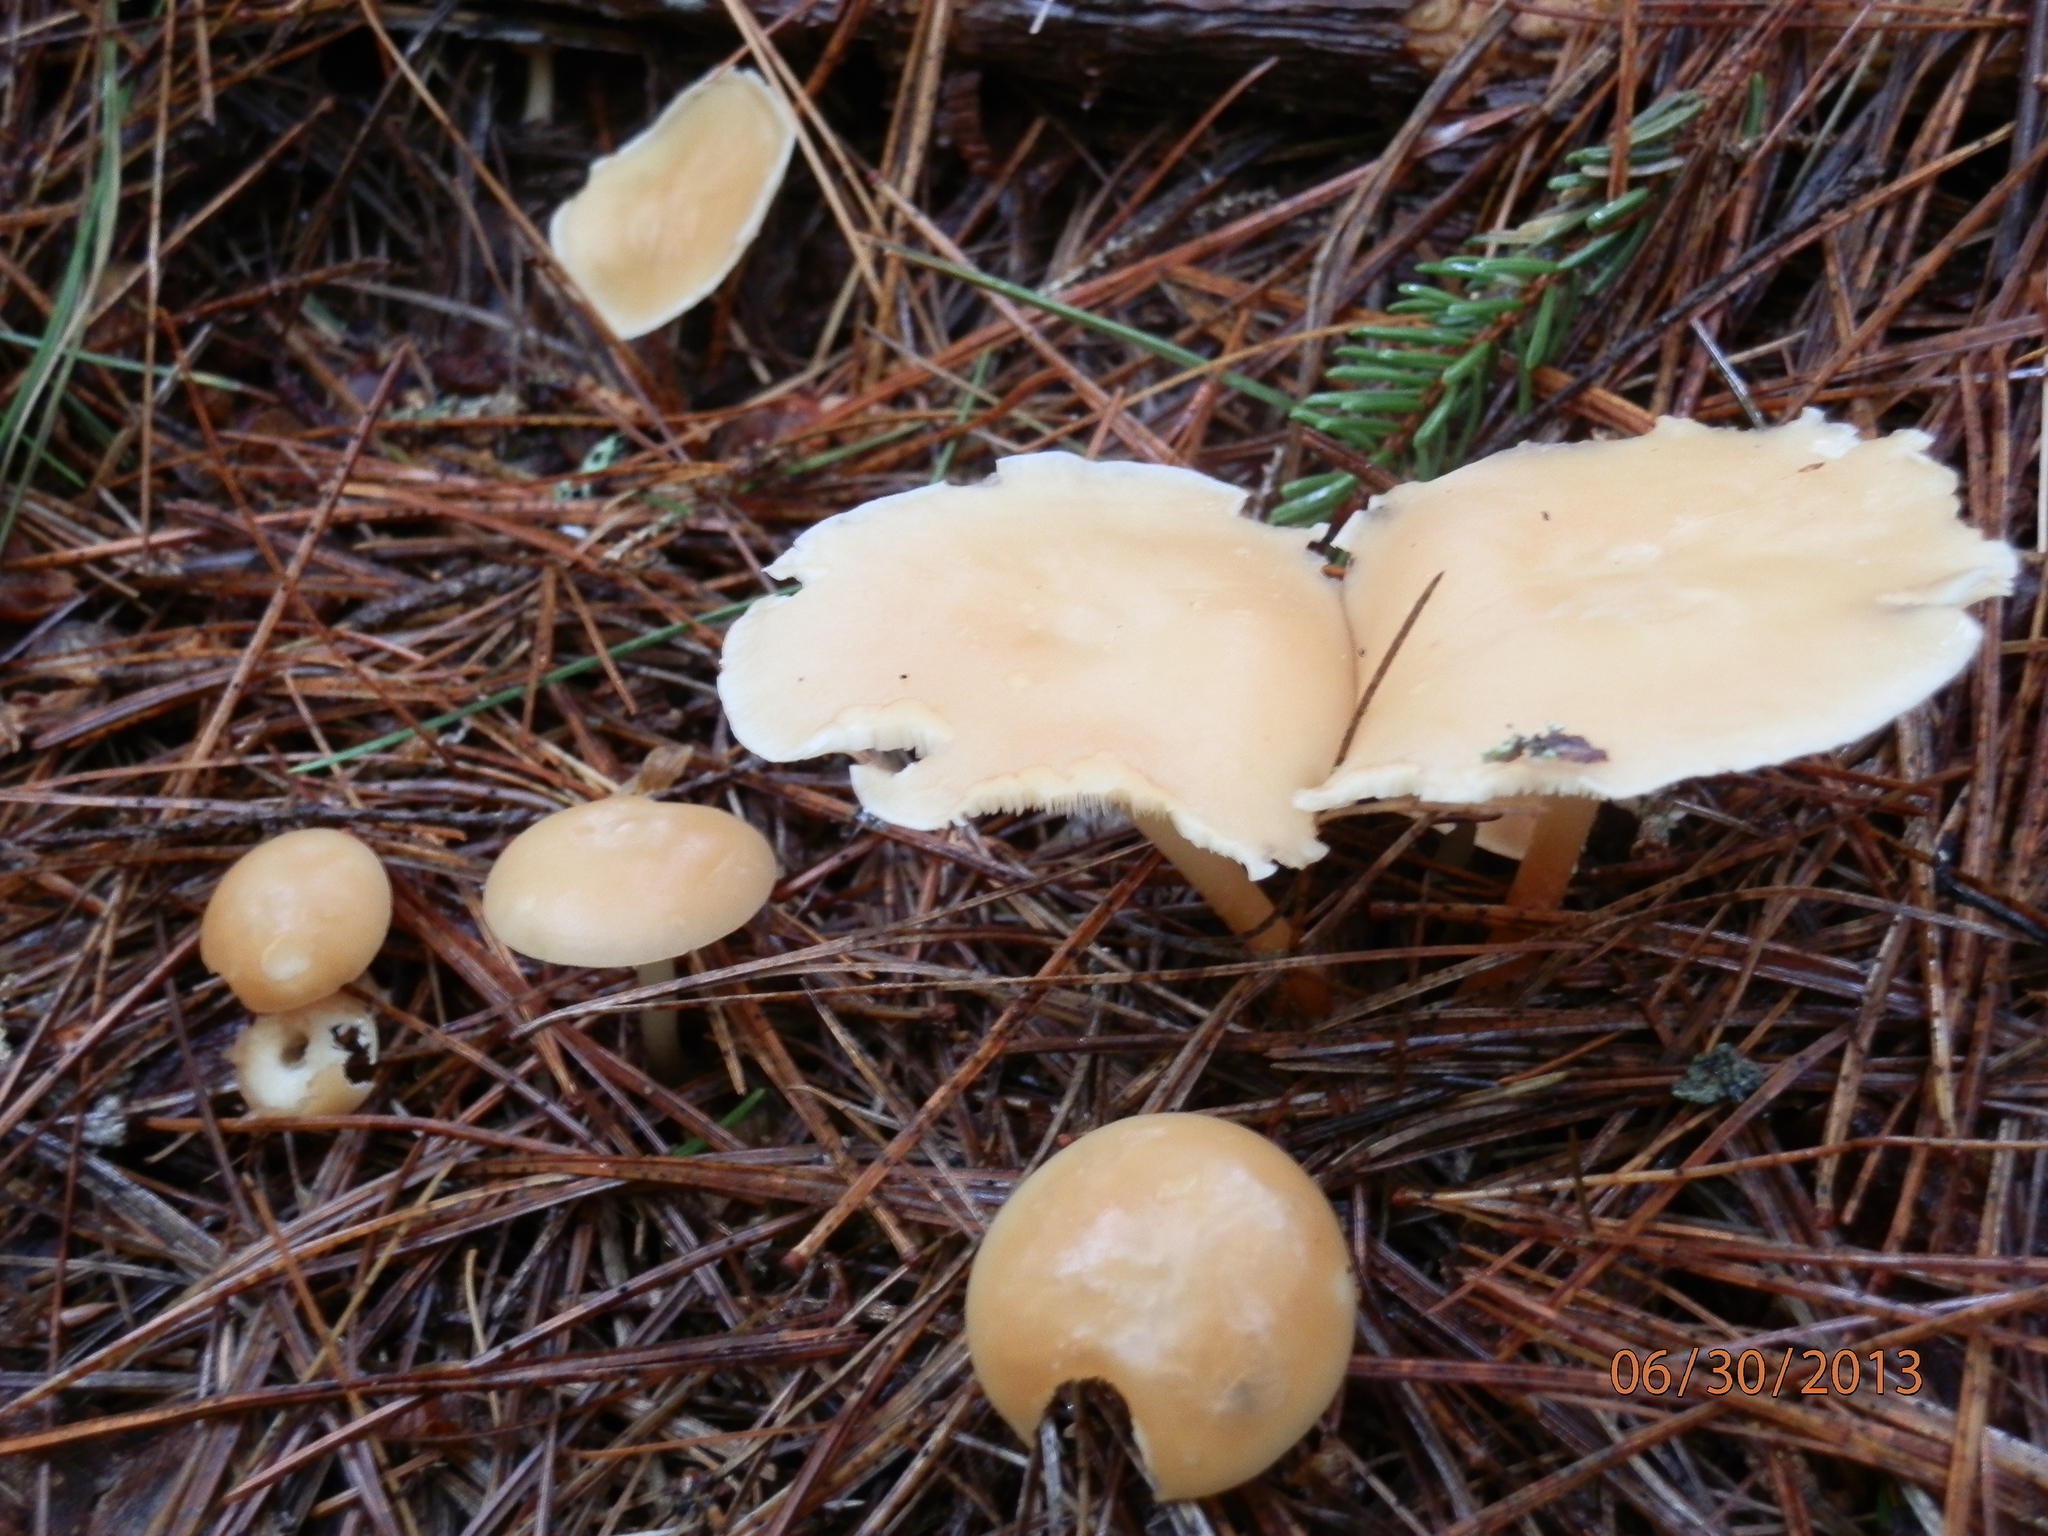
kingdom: Fungi
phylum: Basidiomycota
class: Agaricomycetes
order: Agaricales
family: Omphalotaceae
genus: Gymnopus
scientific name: Gymnopus dryophilus
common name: Penny top
